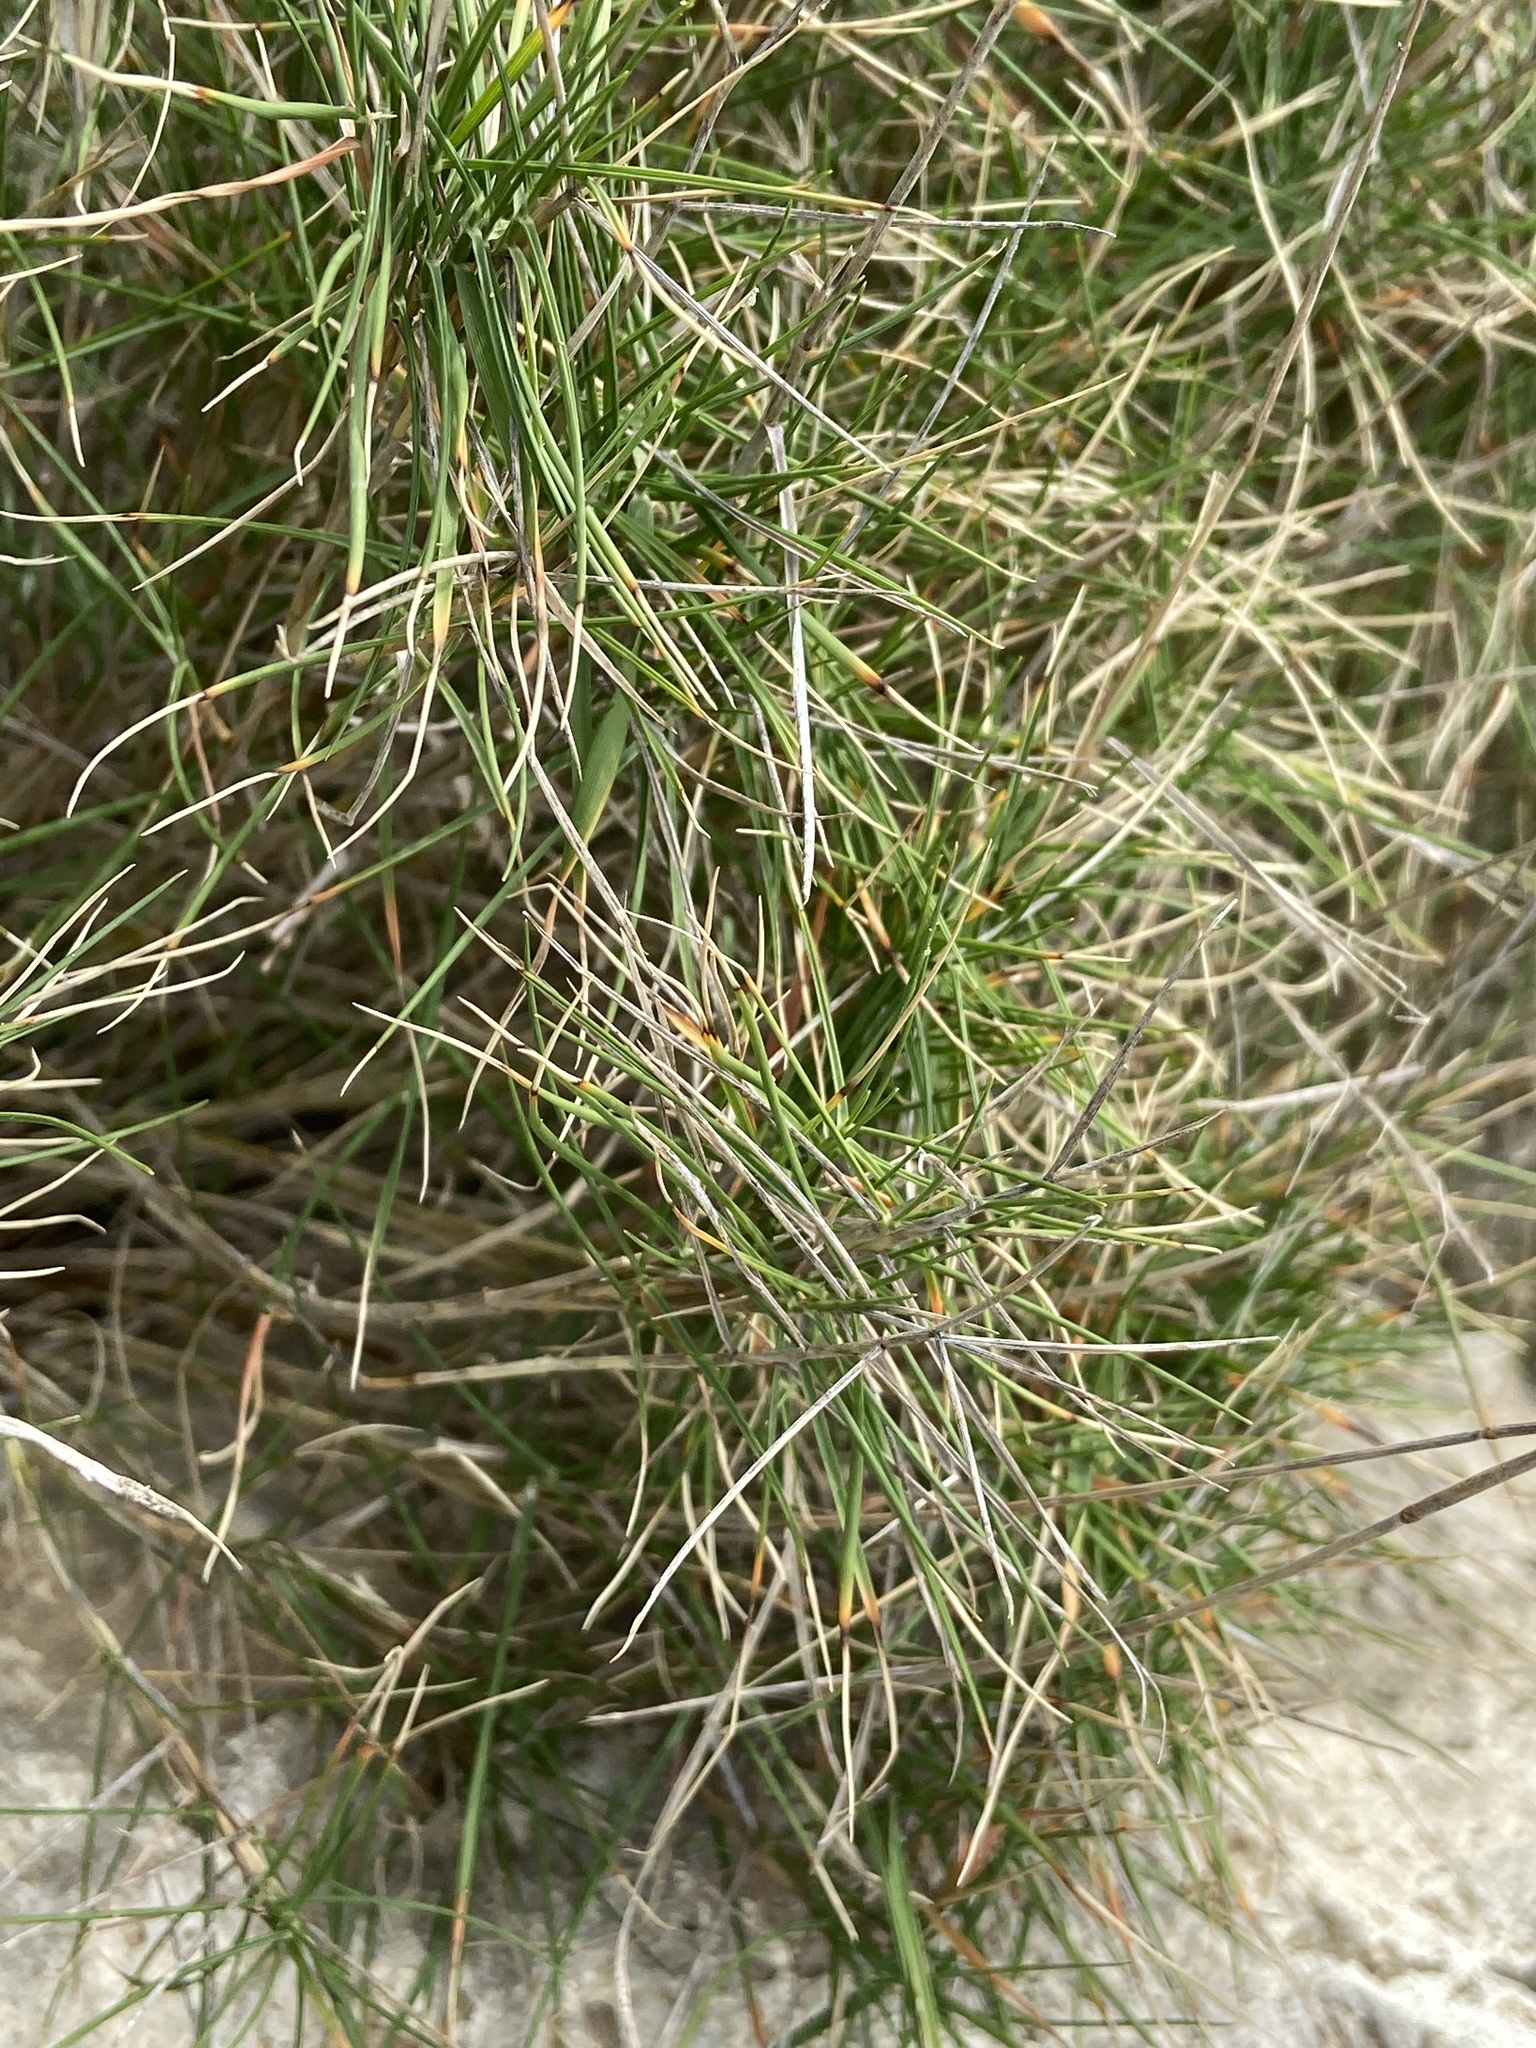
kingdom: Plantae
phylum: Tracheophyta
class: Liliopsida
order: Poales
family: Poaceae
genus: Brachypodium
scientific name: Brachypodium retusum
